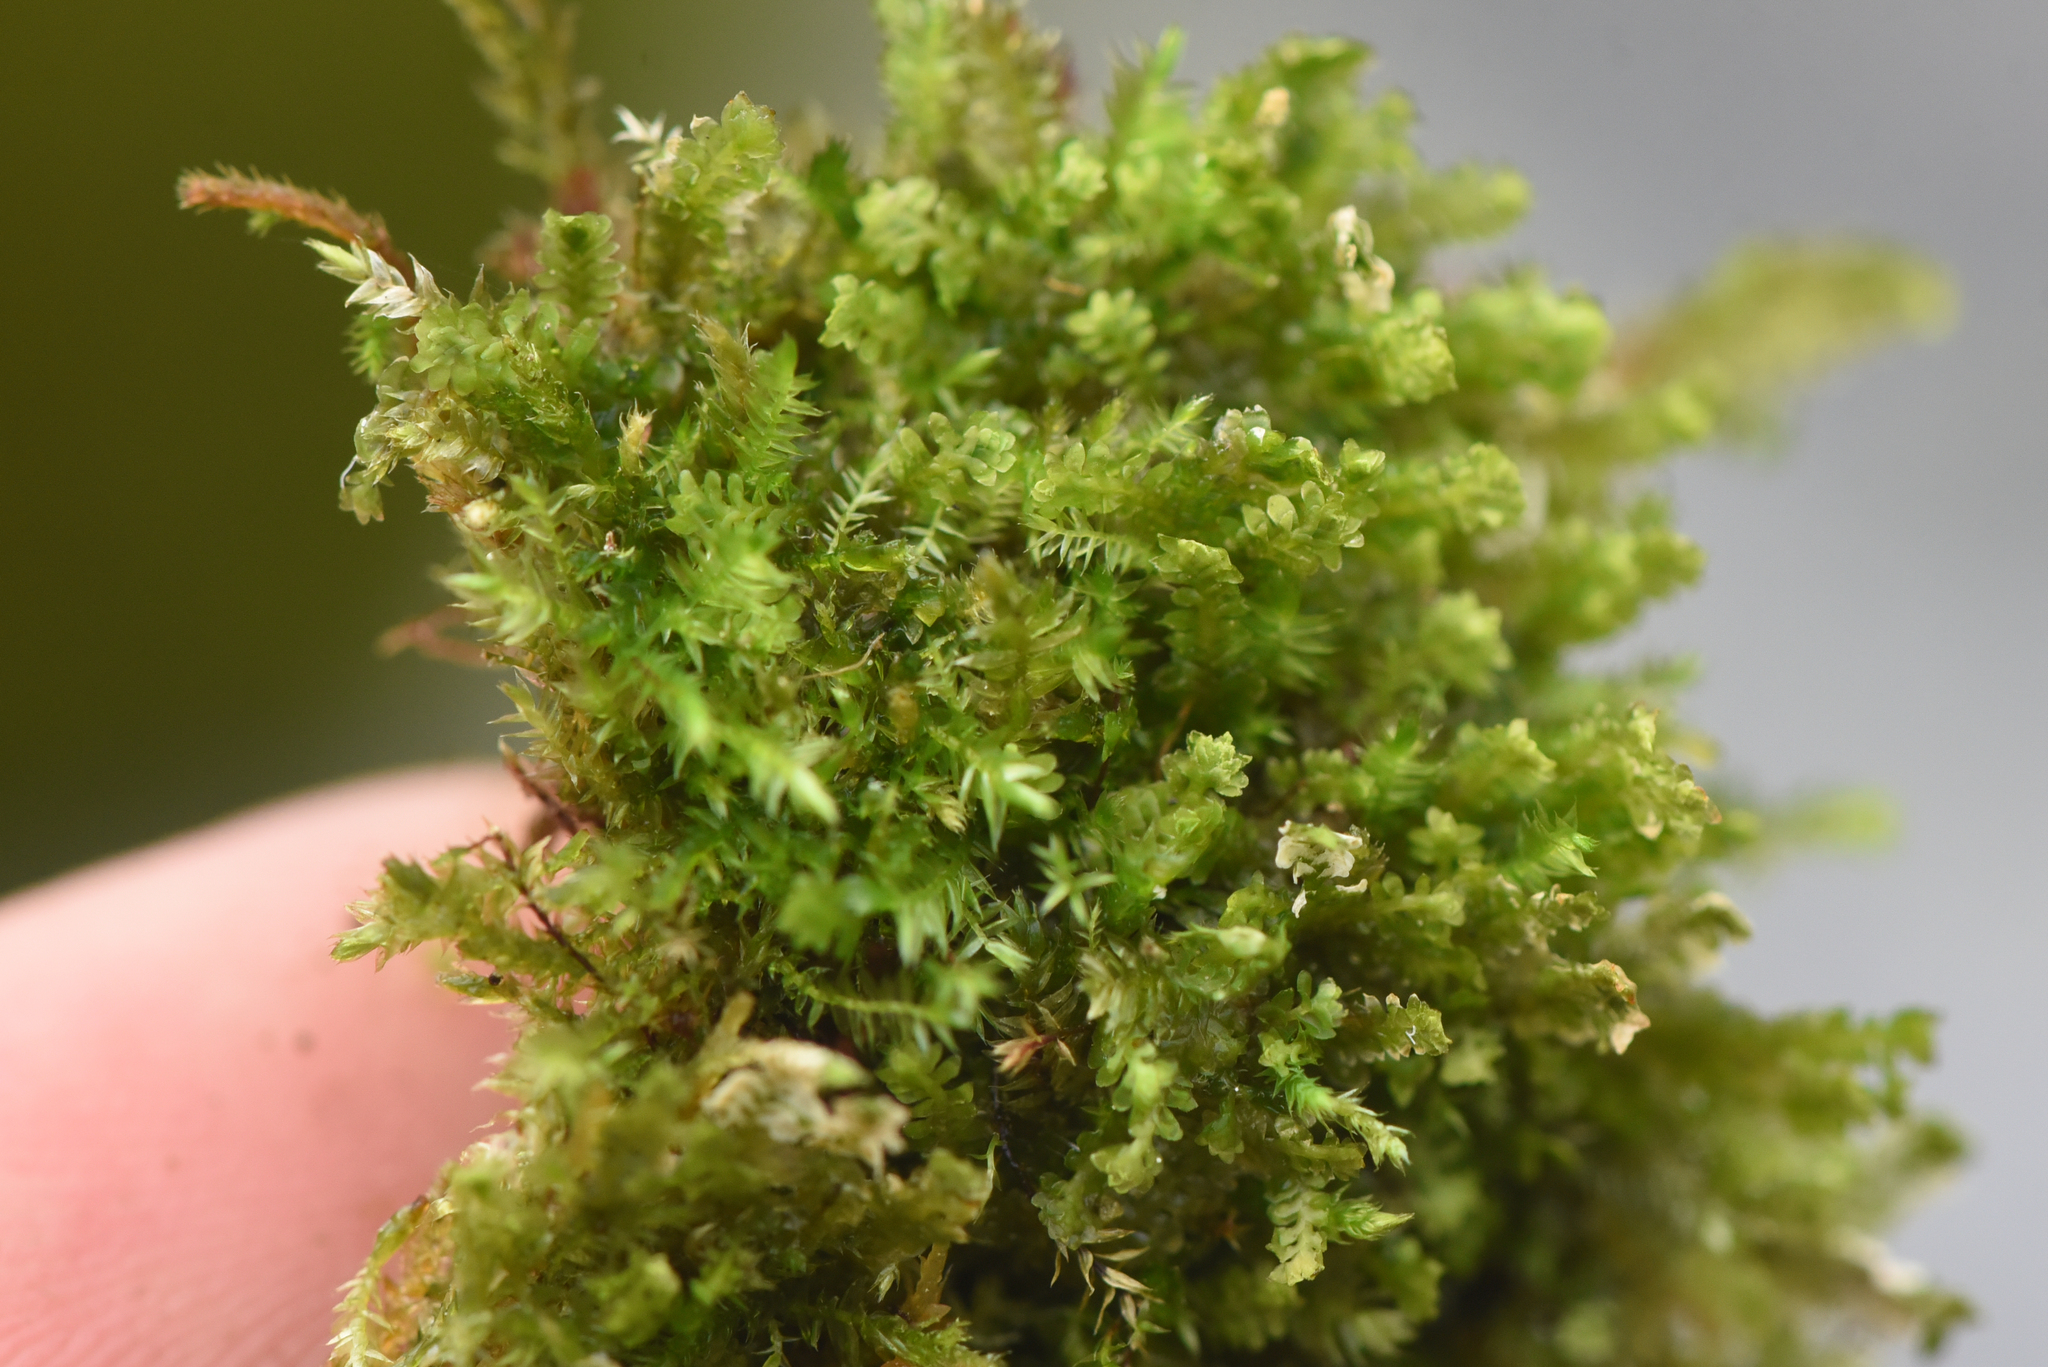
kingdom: Plantae
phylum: Marchantiophyta
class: Jungermanniopsida
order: Jungermanniales
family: Scapaniaceae
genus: Diplophyllum
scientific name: Diplophyllum taxifolium
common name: Alpine earwort
